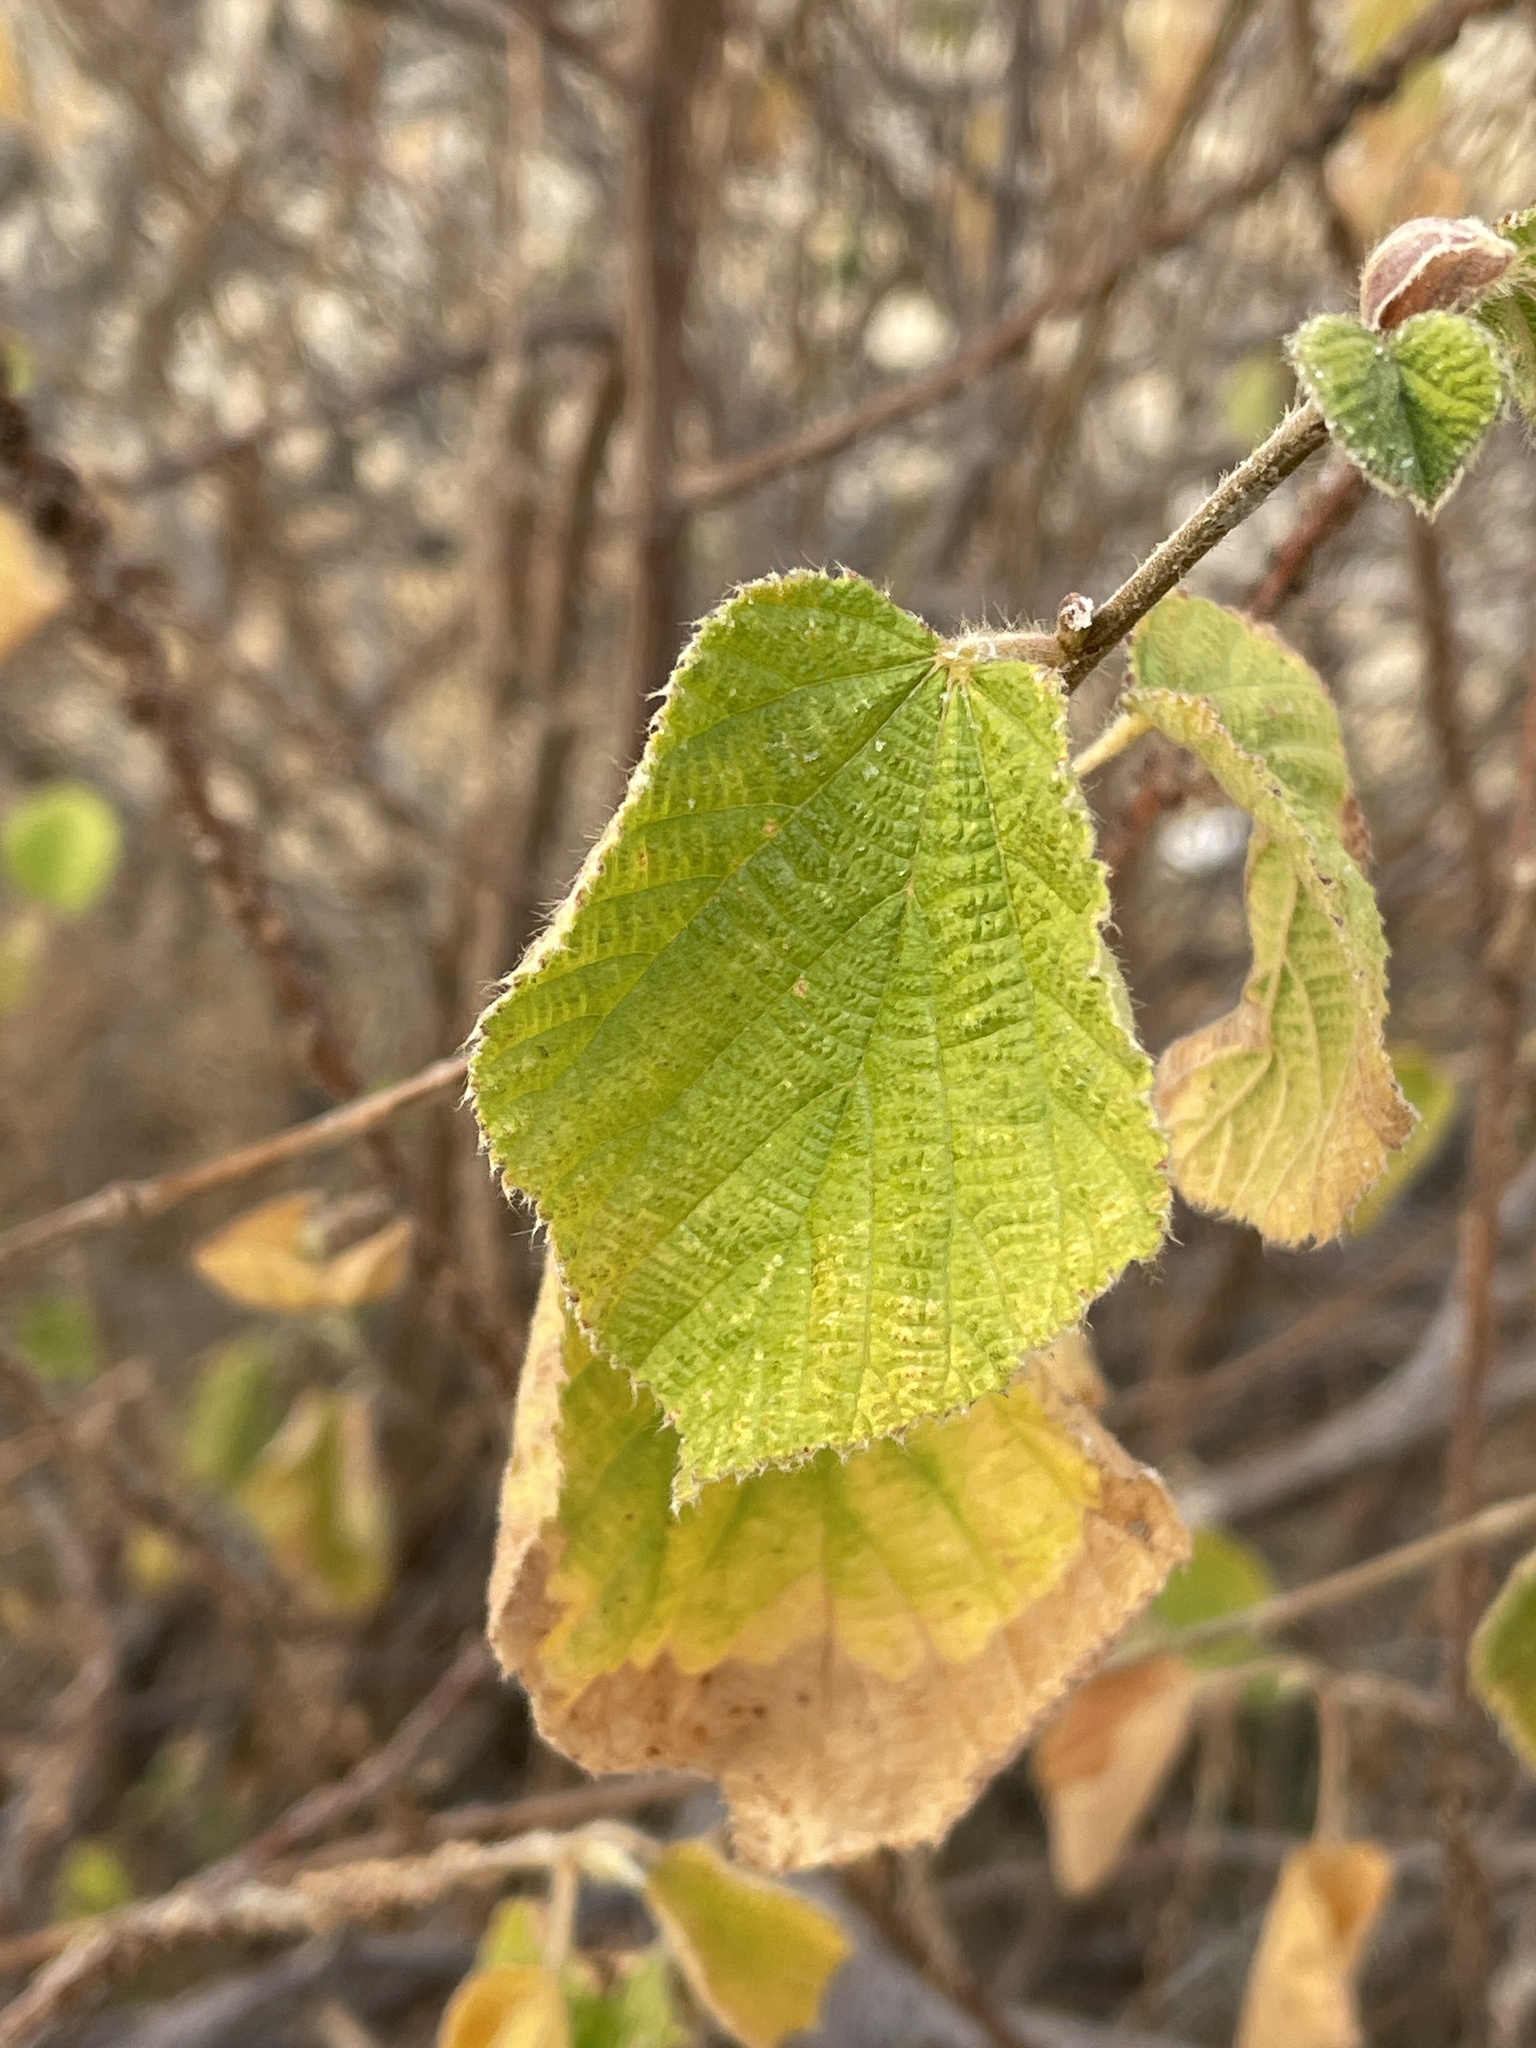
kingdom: Plantae
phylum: Tracheophyta
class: Magnoliopsida
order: Malvales
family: Malvaceae
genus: Grewia
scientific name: Grewia villosa
